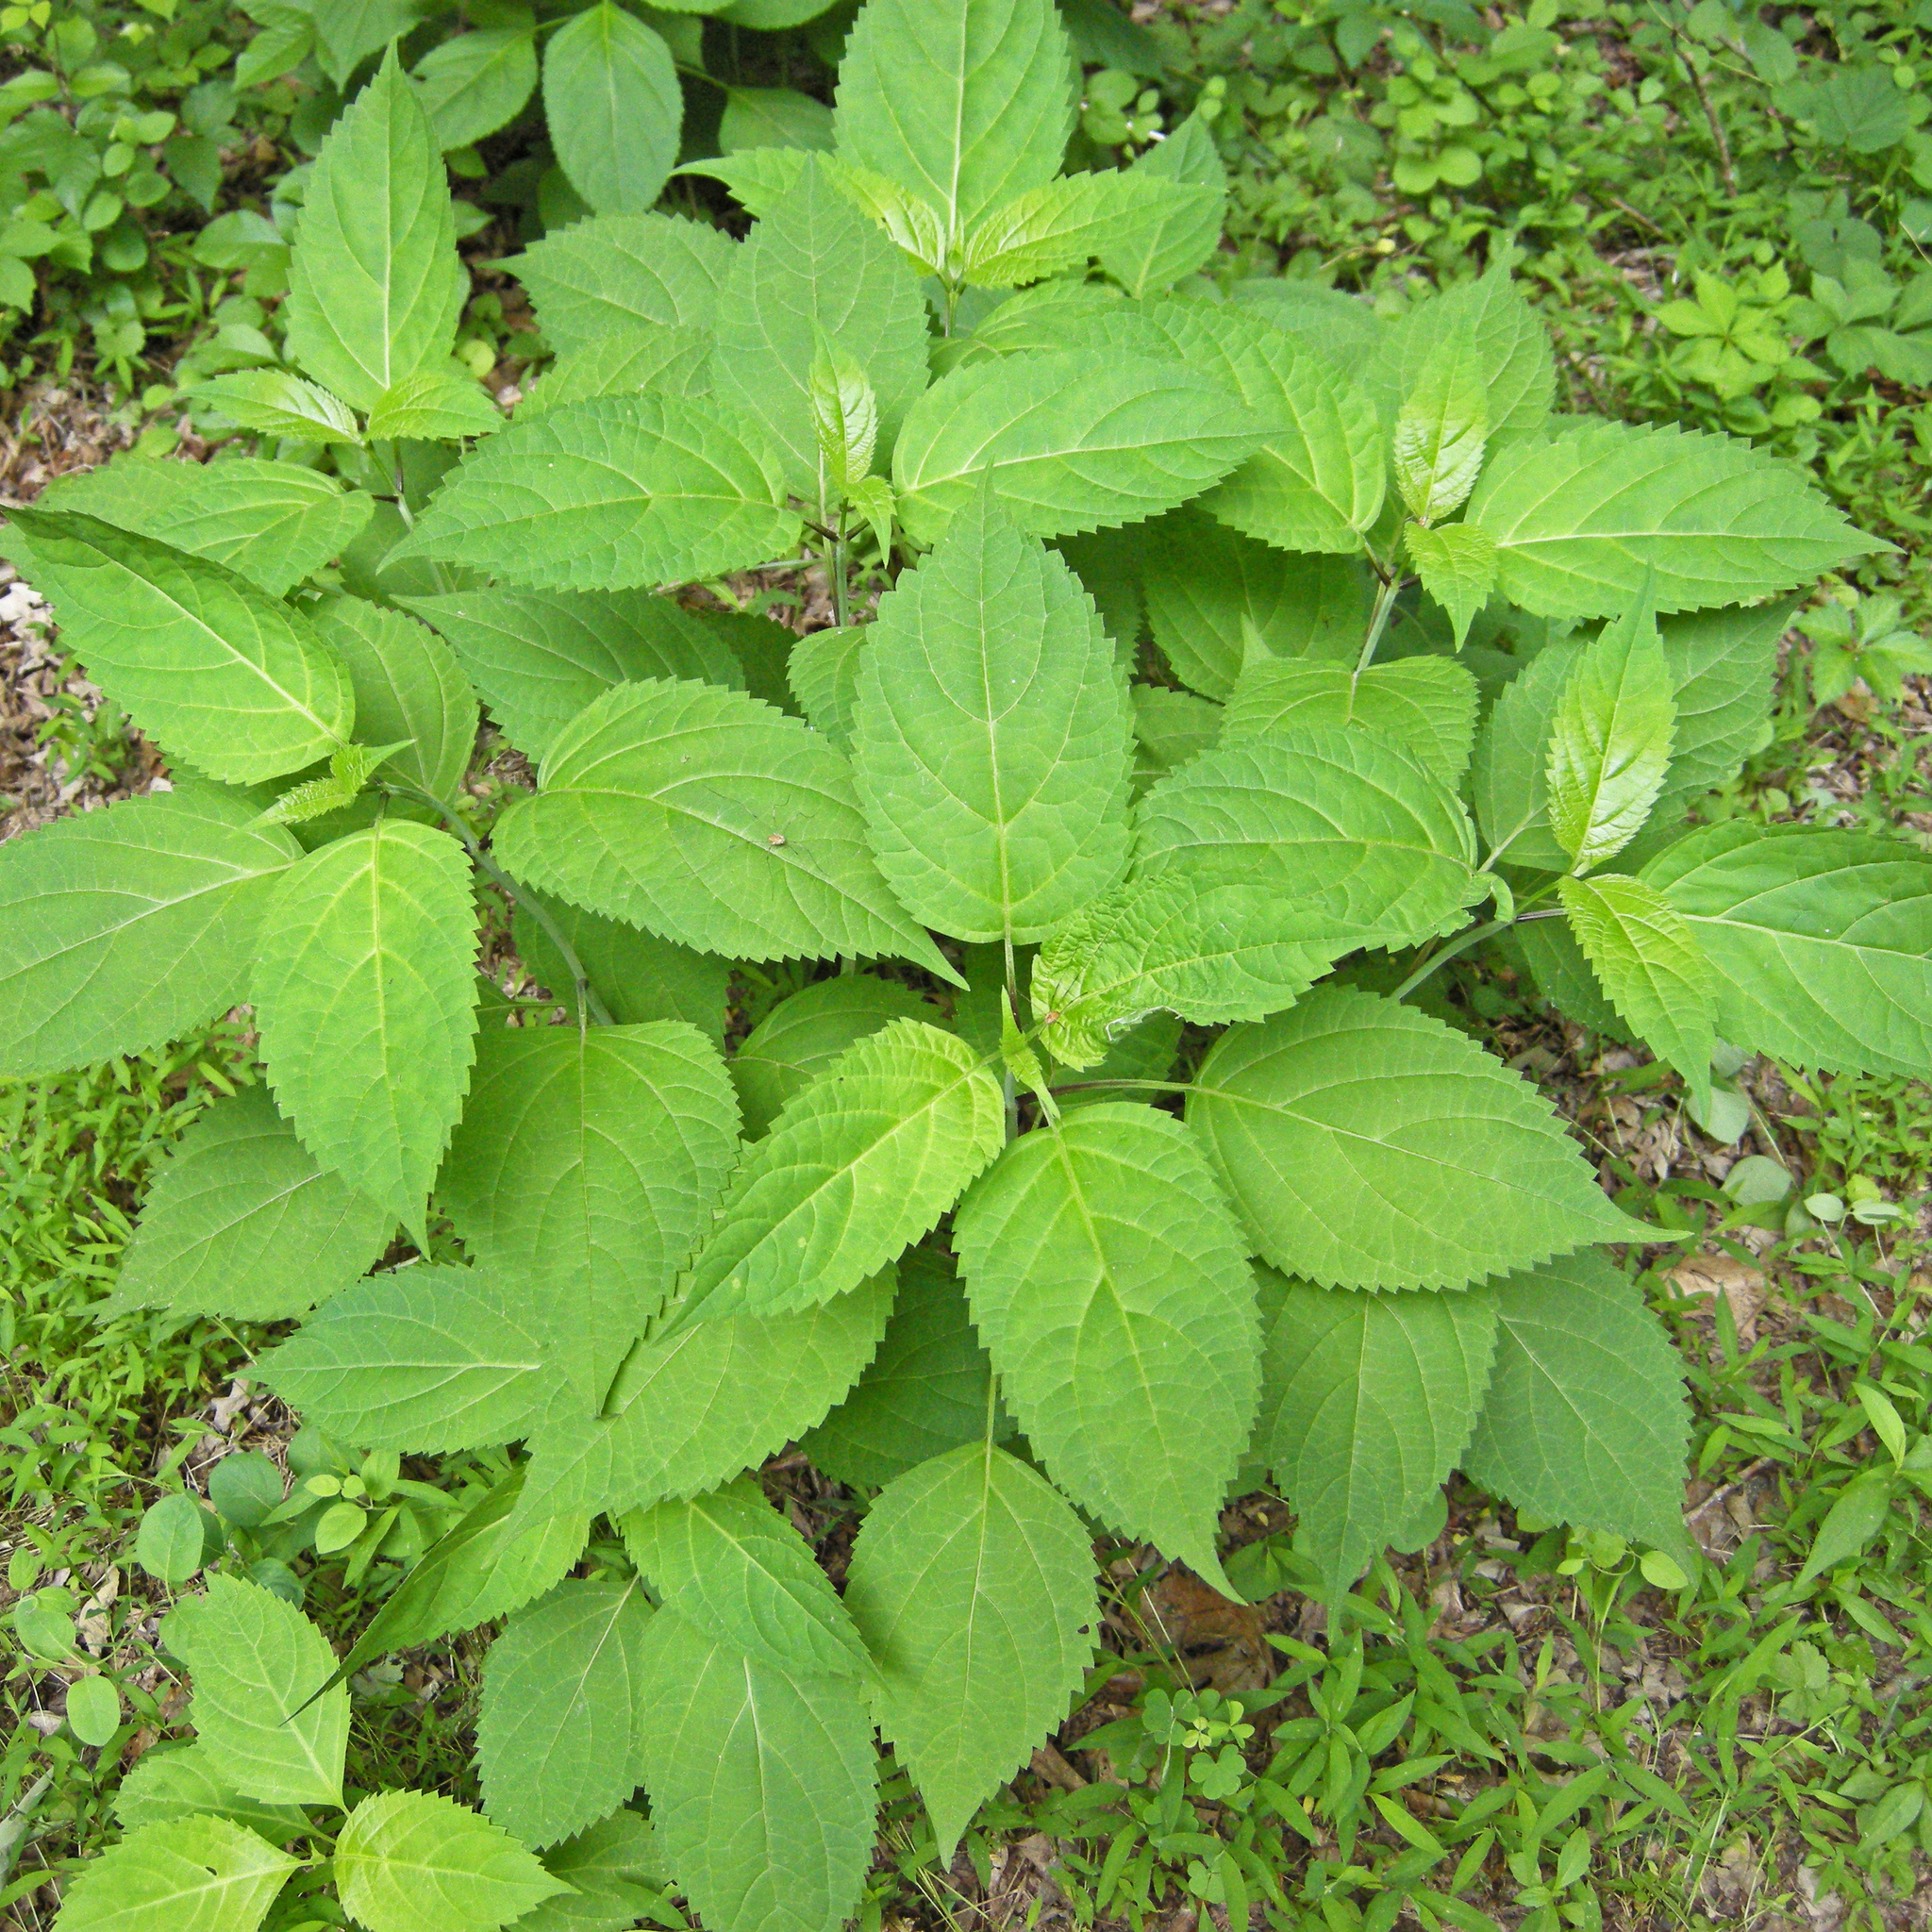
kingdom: Plantae
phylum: Tracheophyta
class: Magnoliopsida
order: Lamiales
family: Lamiaceae
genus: Collinsonia
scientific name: Collinsonia canadensis
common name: Northern horsebalm
